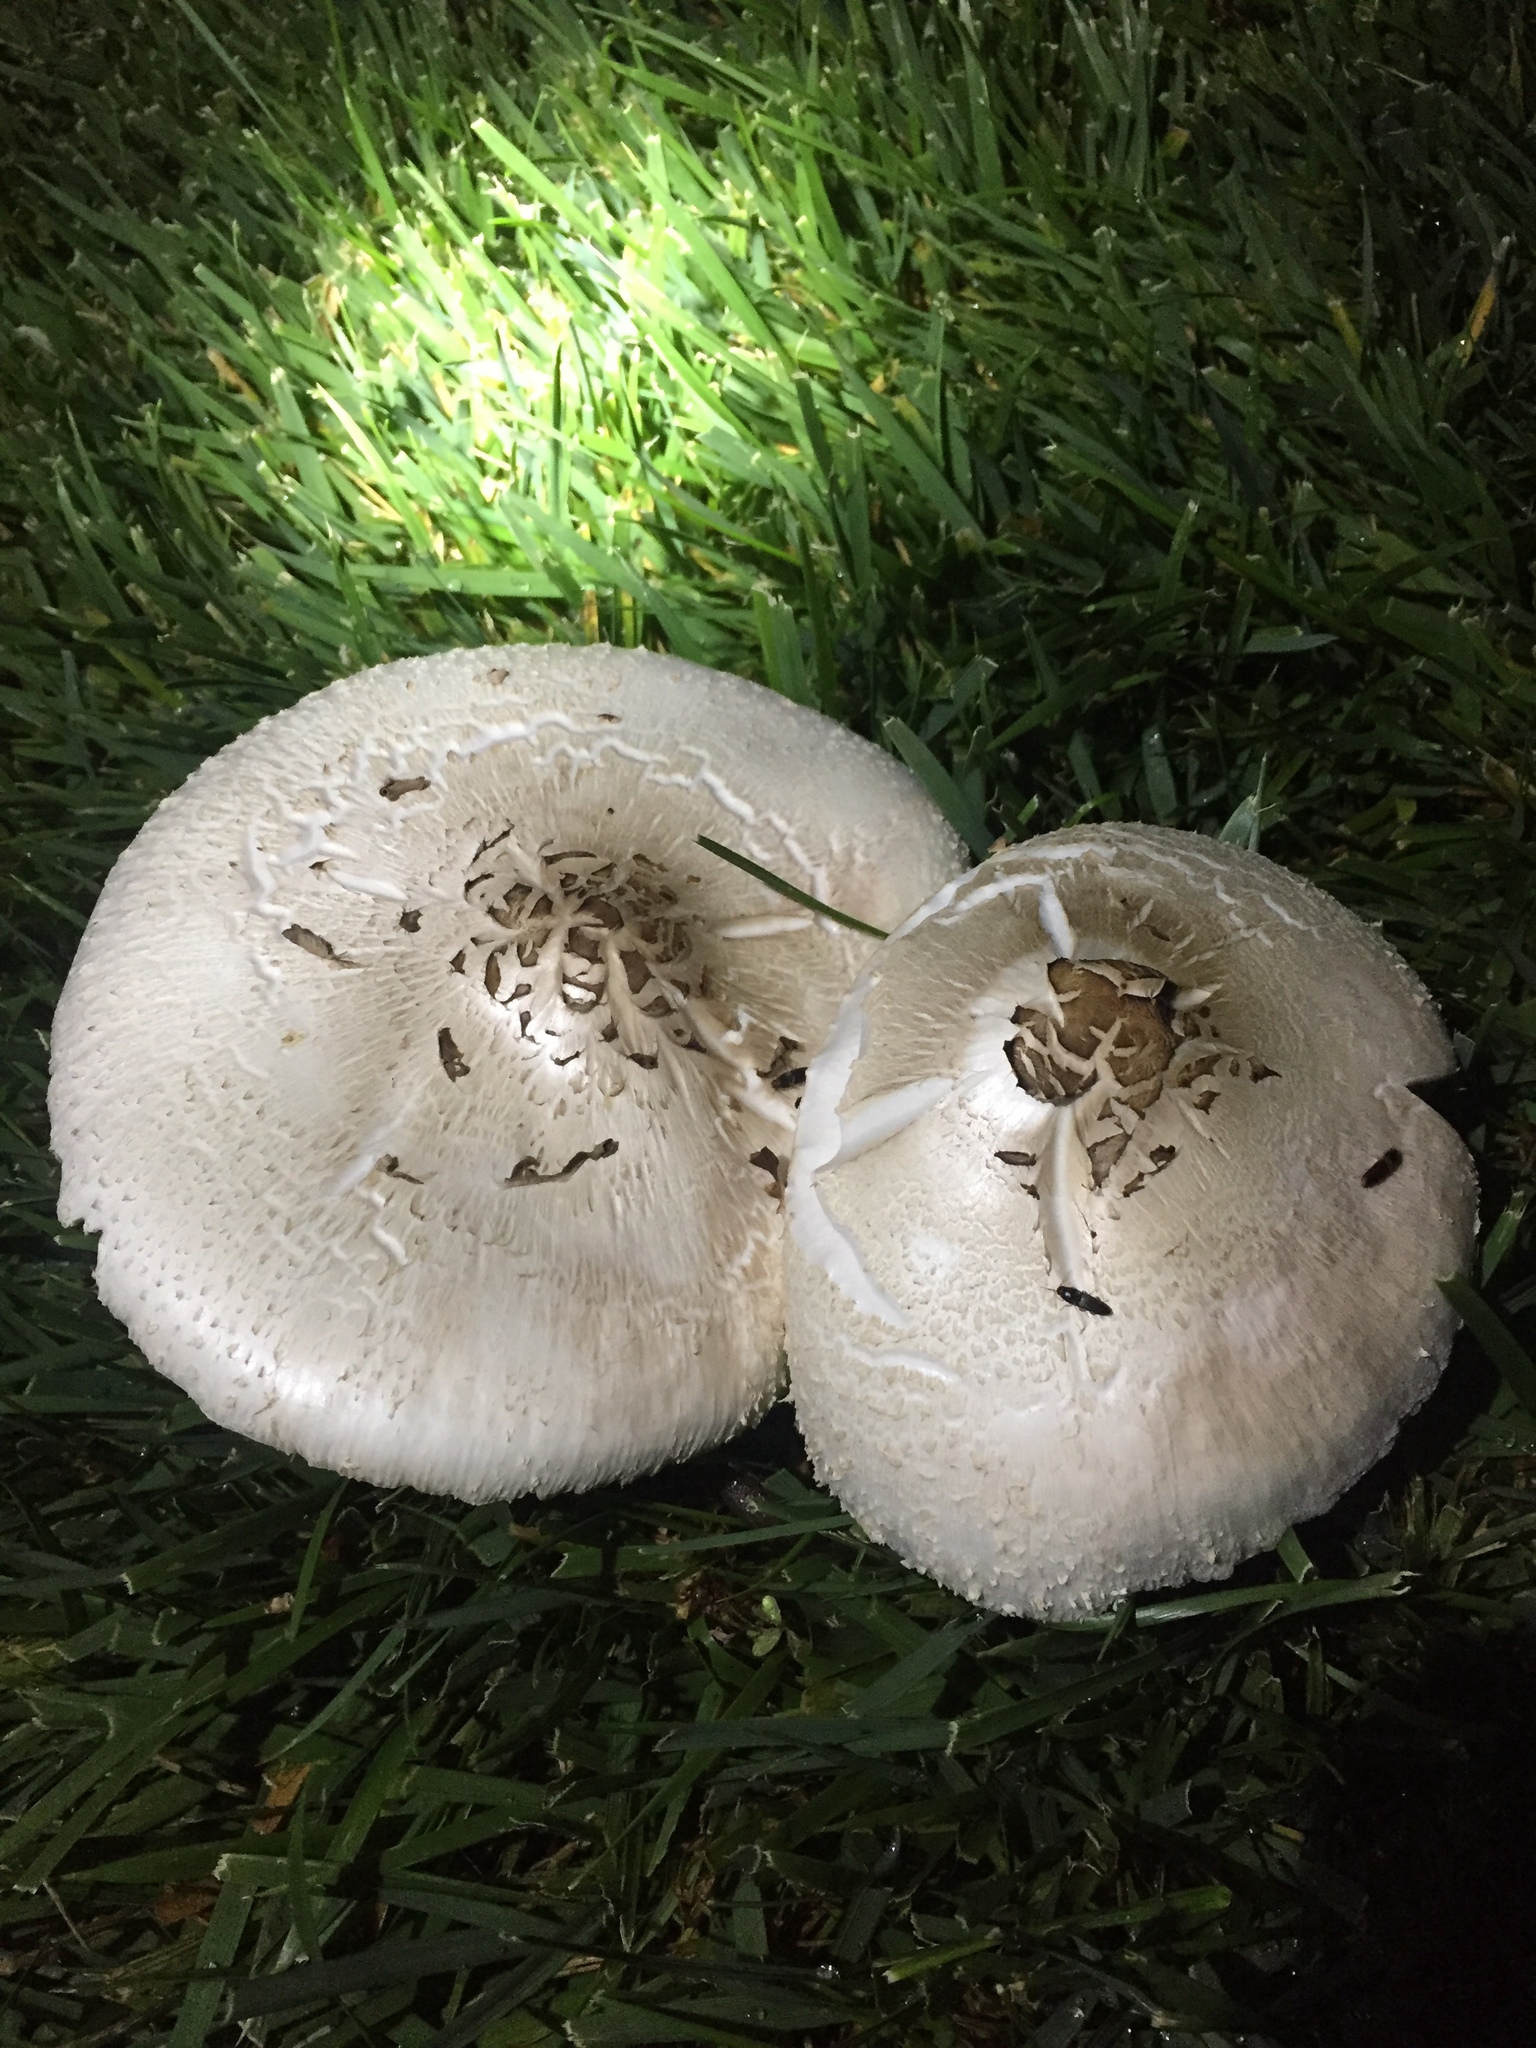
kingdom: Fungi
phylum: Basidiomycota
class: Agaricomycetes
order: Agaricales
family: Agaricaceae
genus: Chlorophyllum
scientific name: Chlorophyllum molybdites
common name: False parasol
